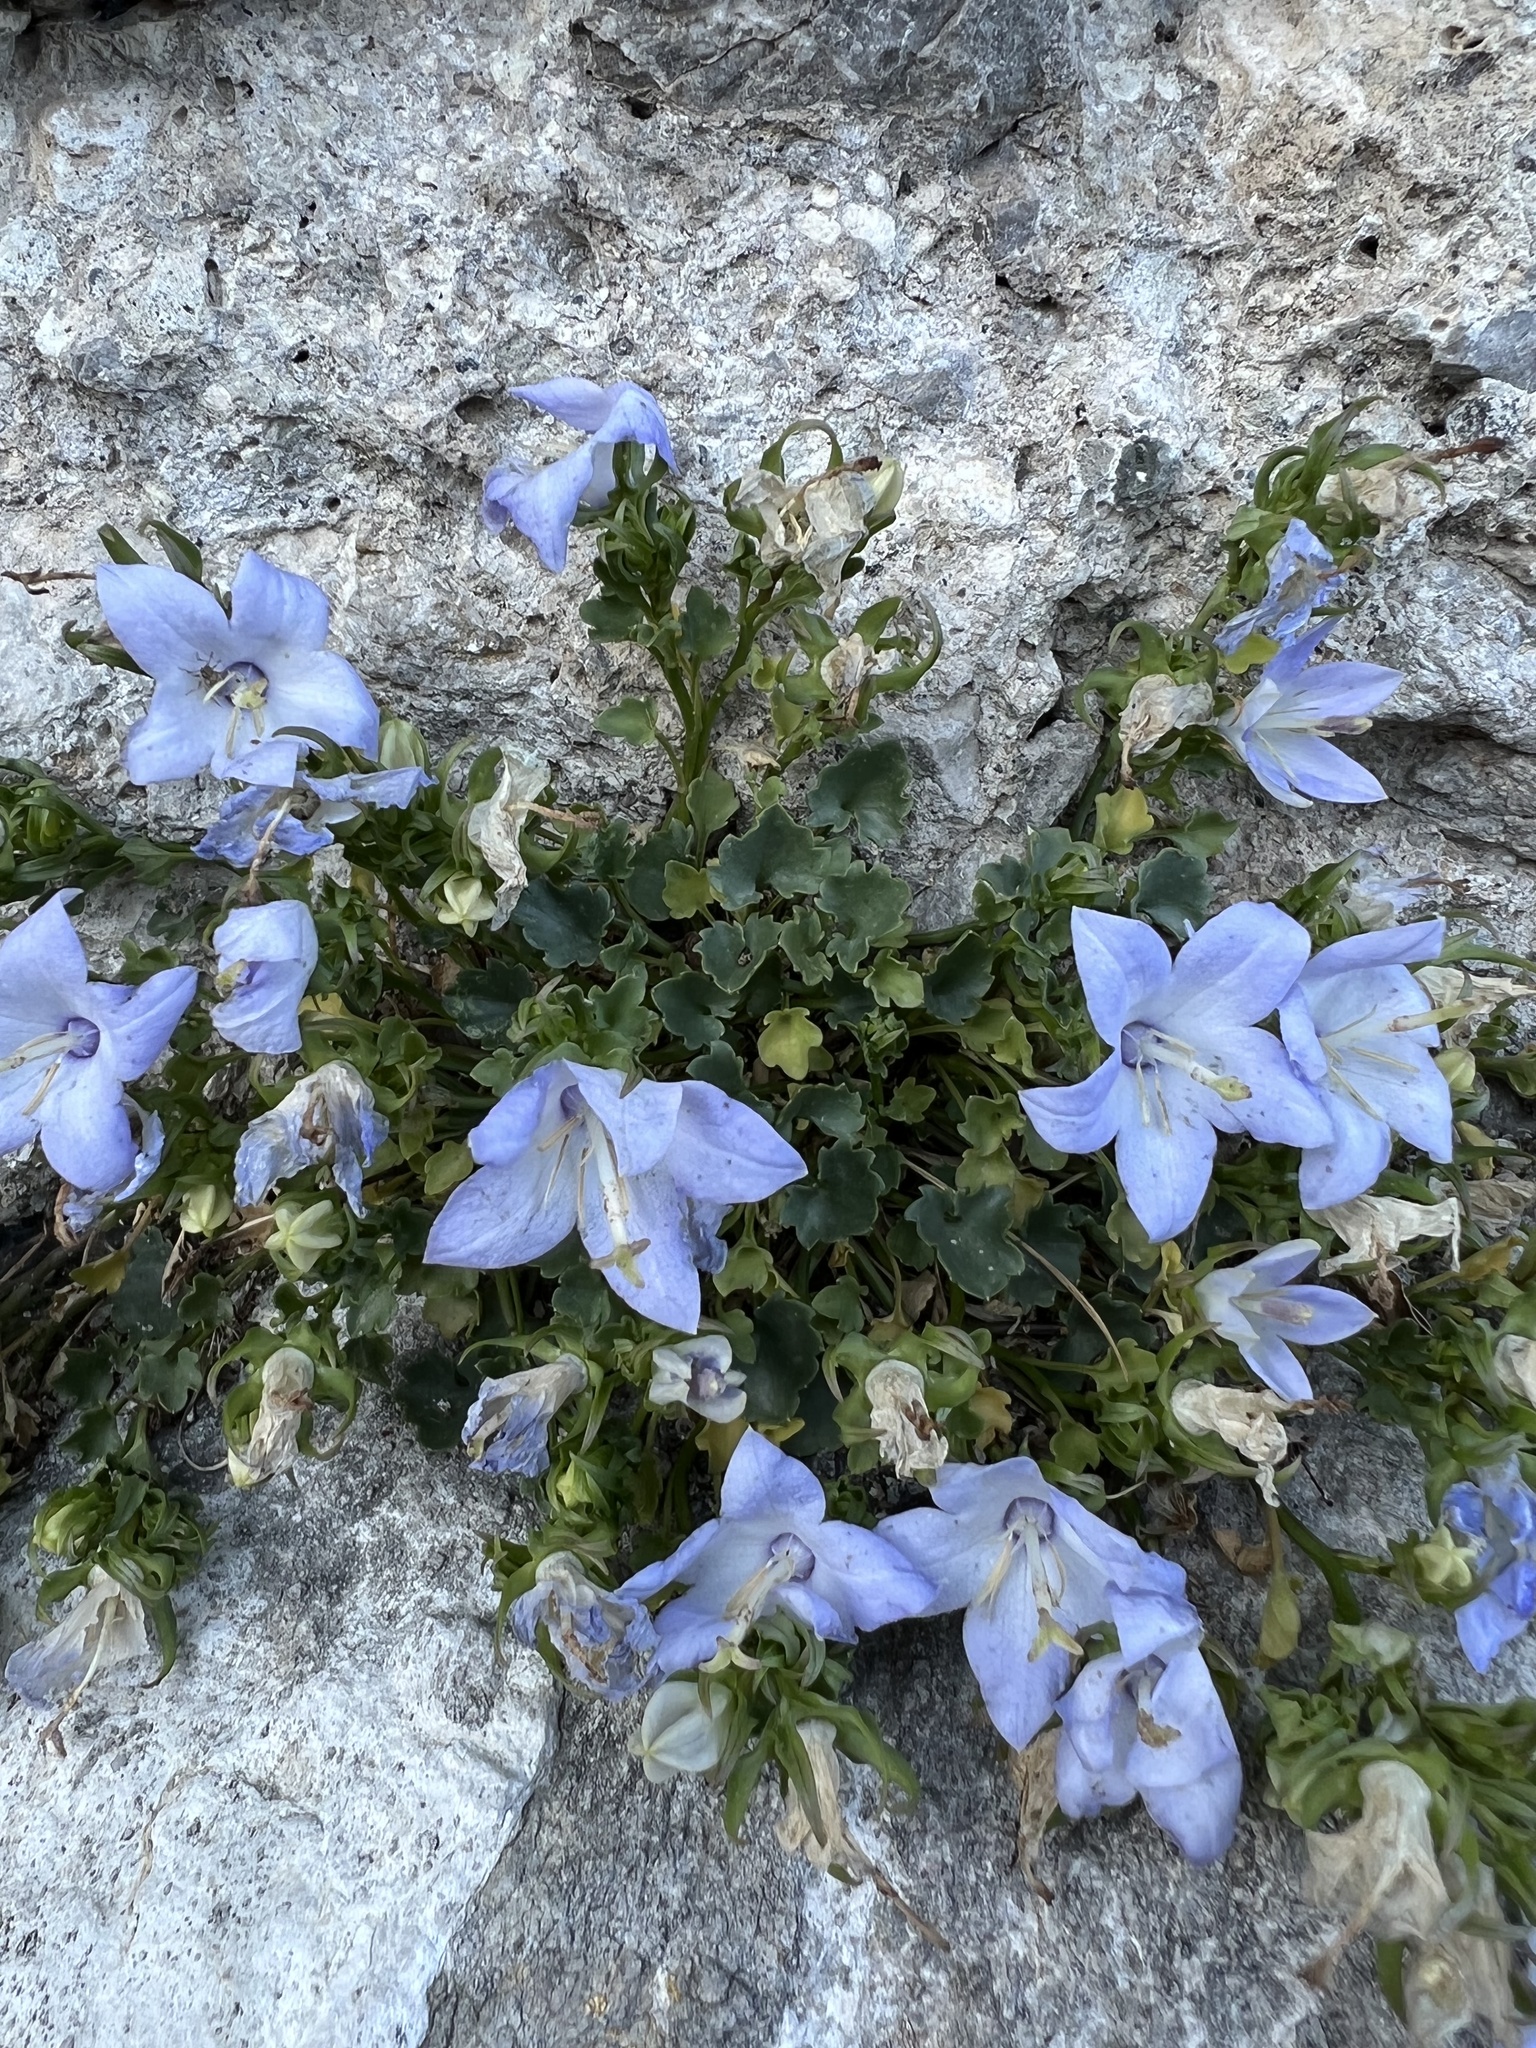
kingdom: Plantae
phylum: Tracheophyta
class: Magnoliopsida
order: Asterales
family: Campanulaceae
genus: Campanula
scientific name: Campanula fragilis
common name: Italian bellflower
